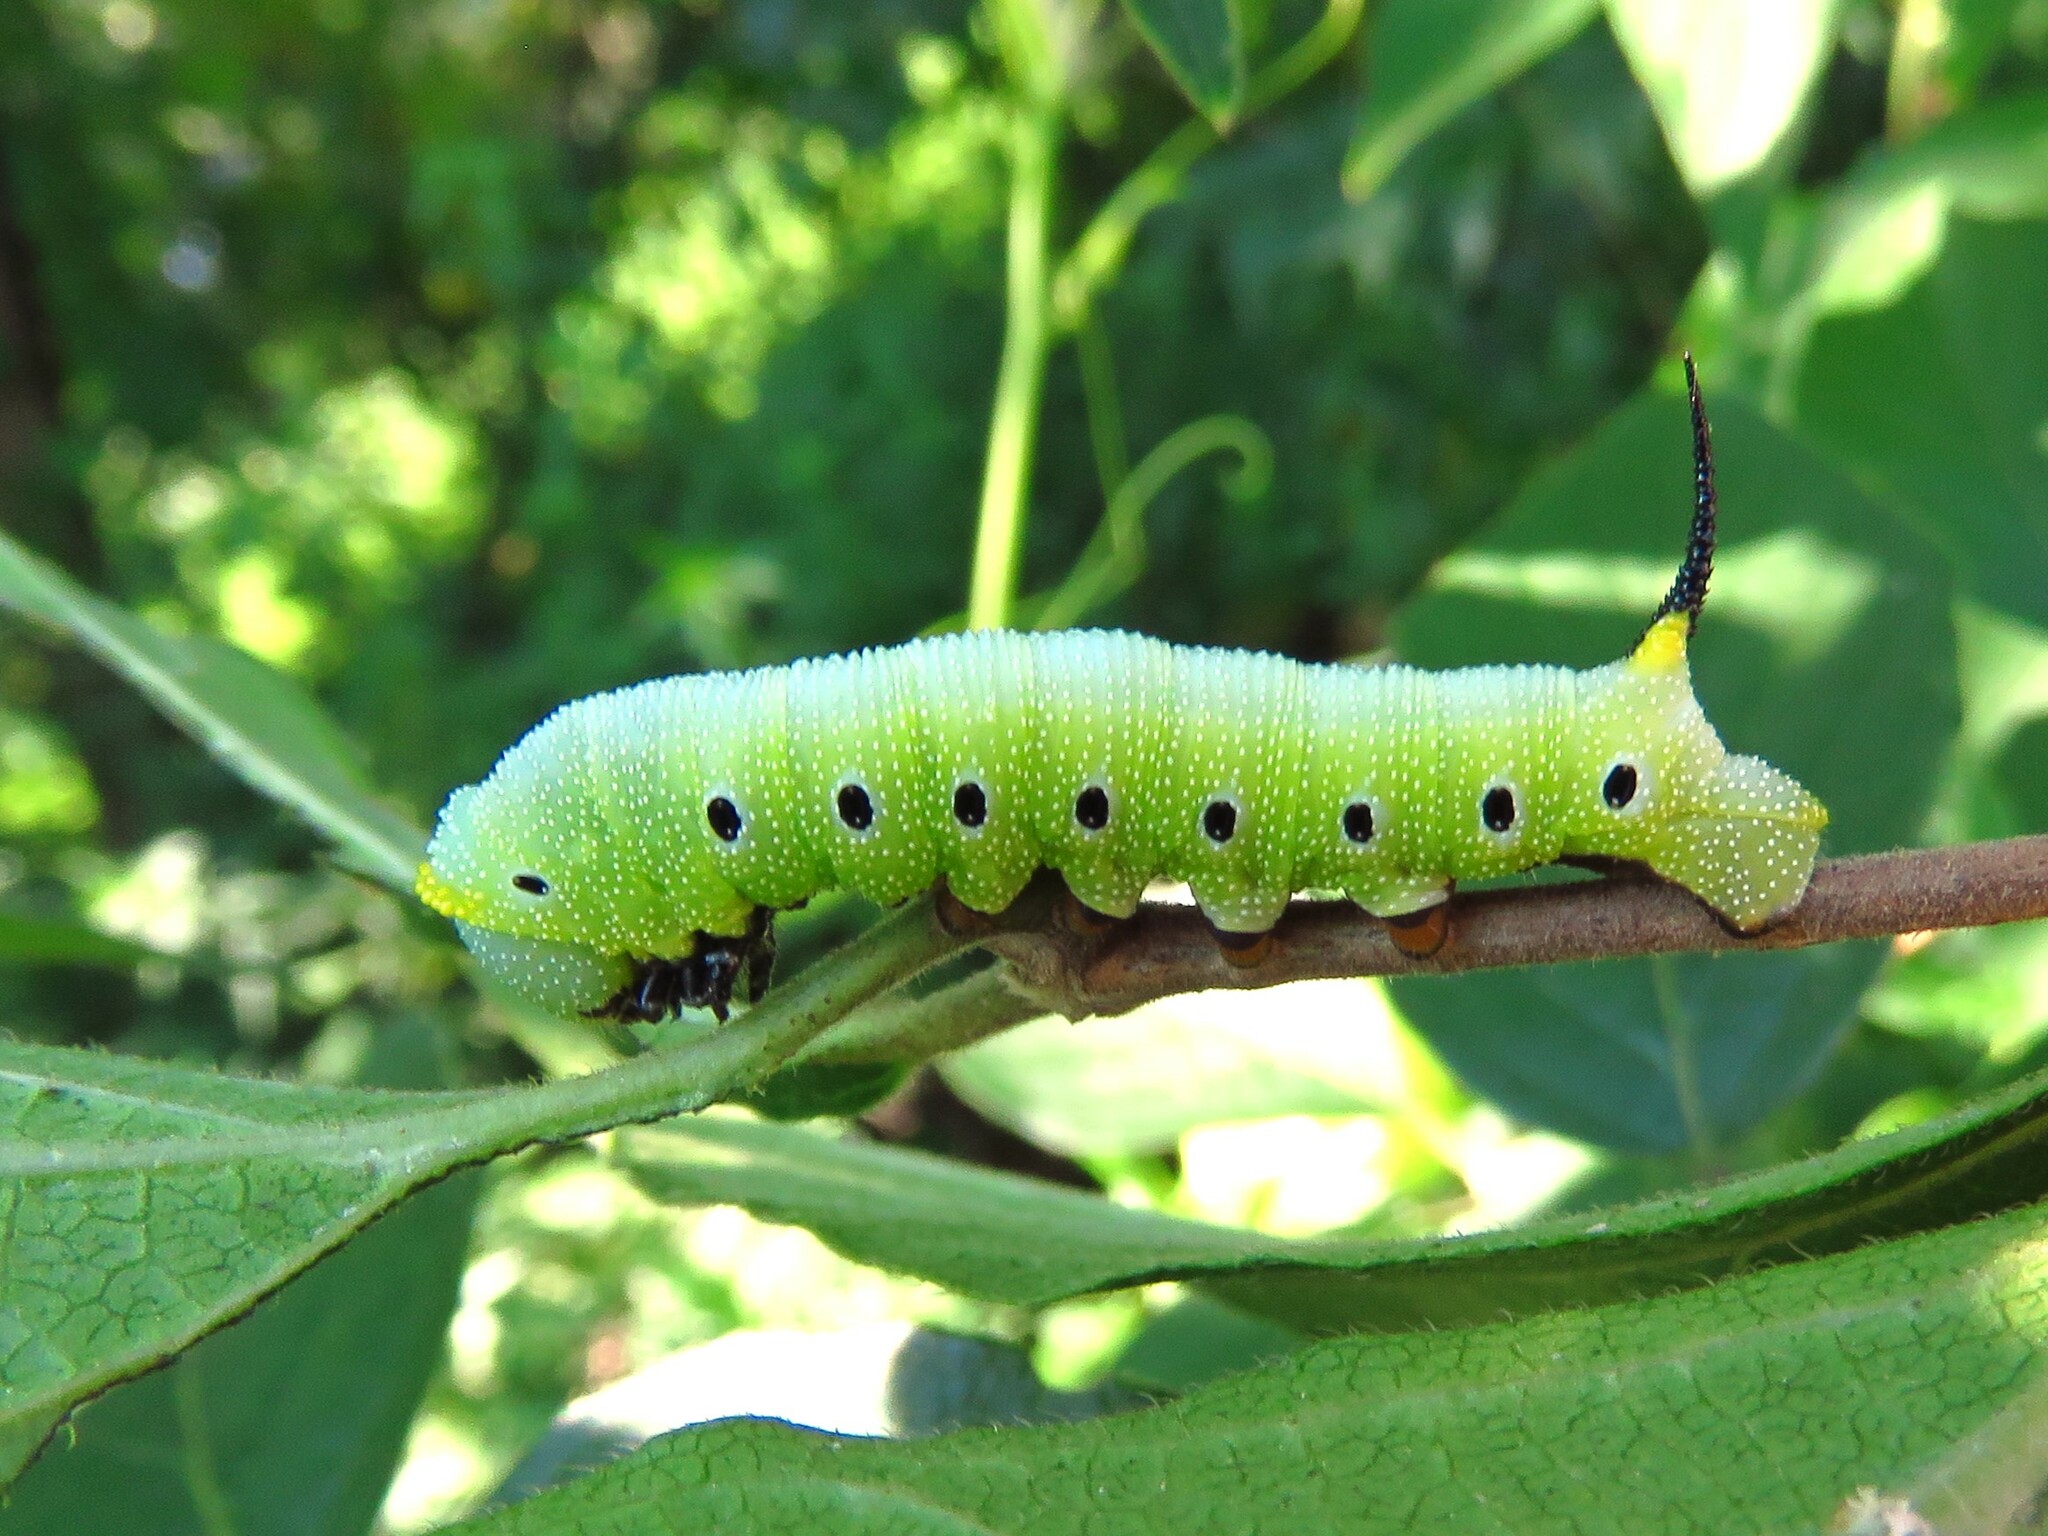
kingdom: Animalia
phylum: Arthropoda
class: Insecta
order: Lepidoptera
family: Sphingidae
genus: Hemaris
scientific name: Hemaris diffinis
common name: Bumblebee moth
